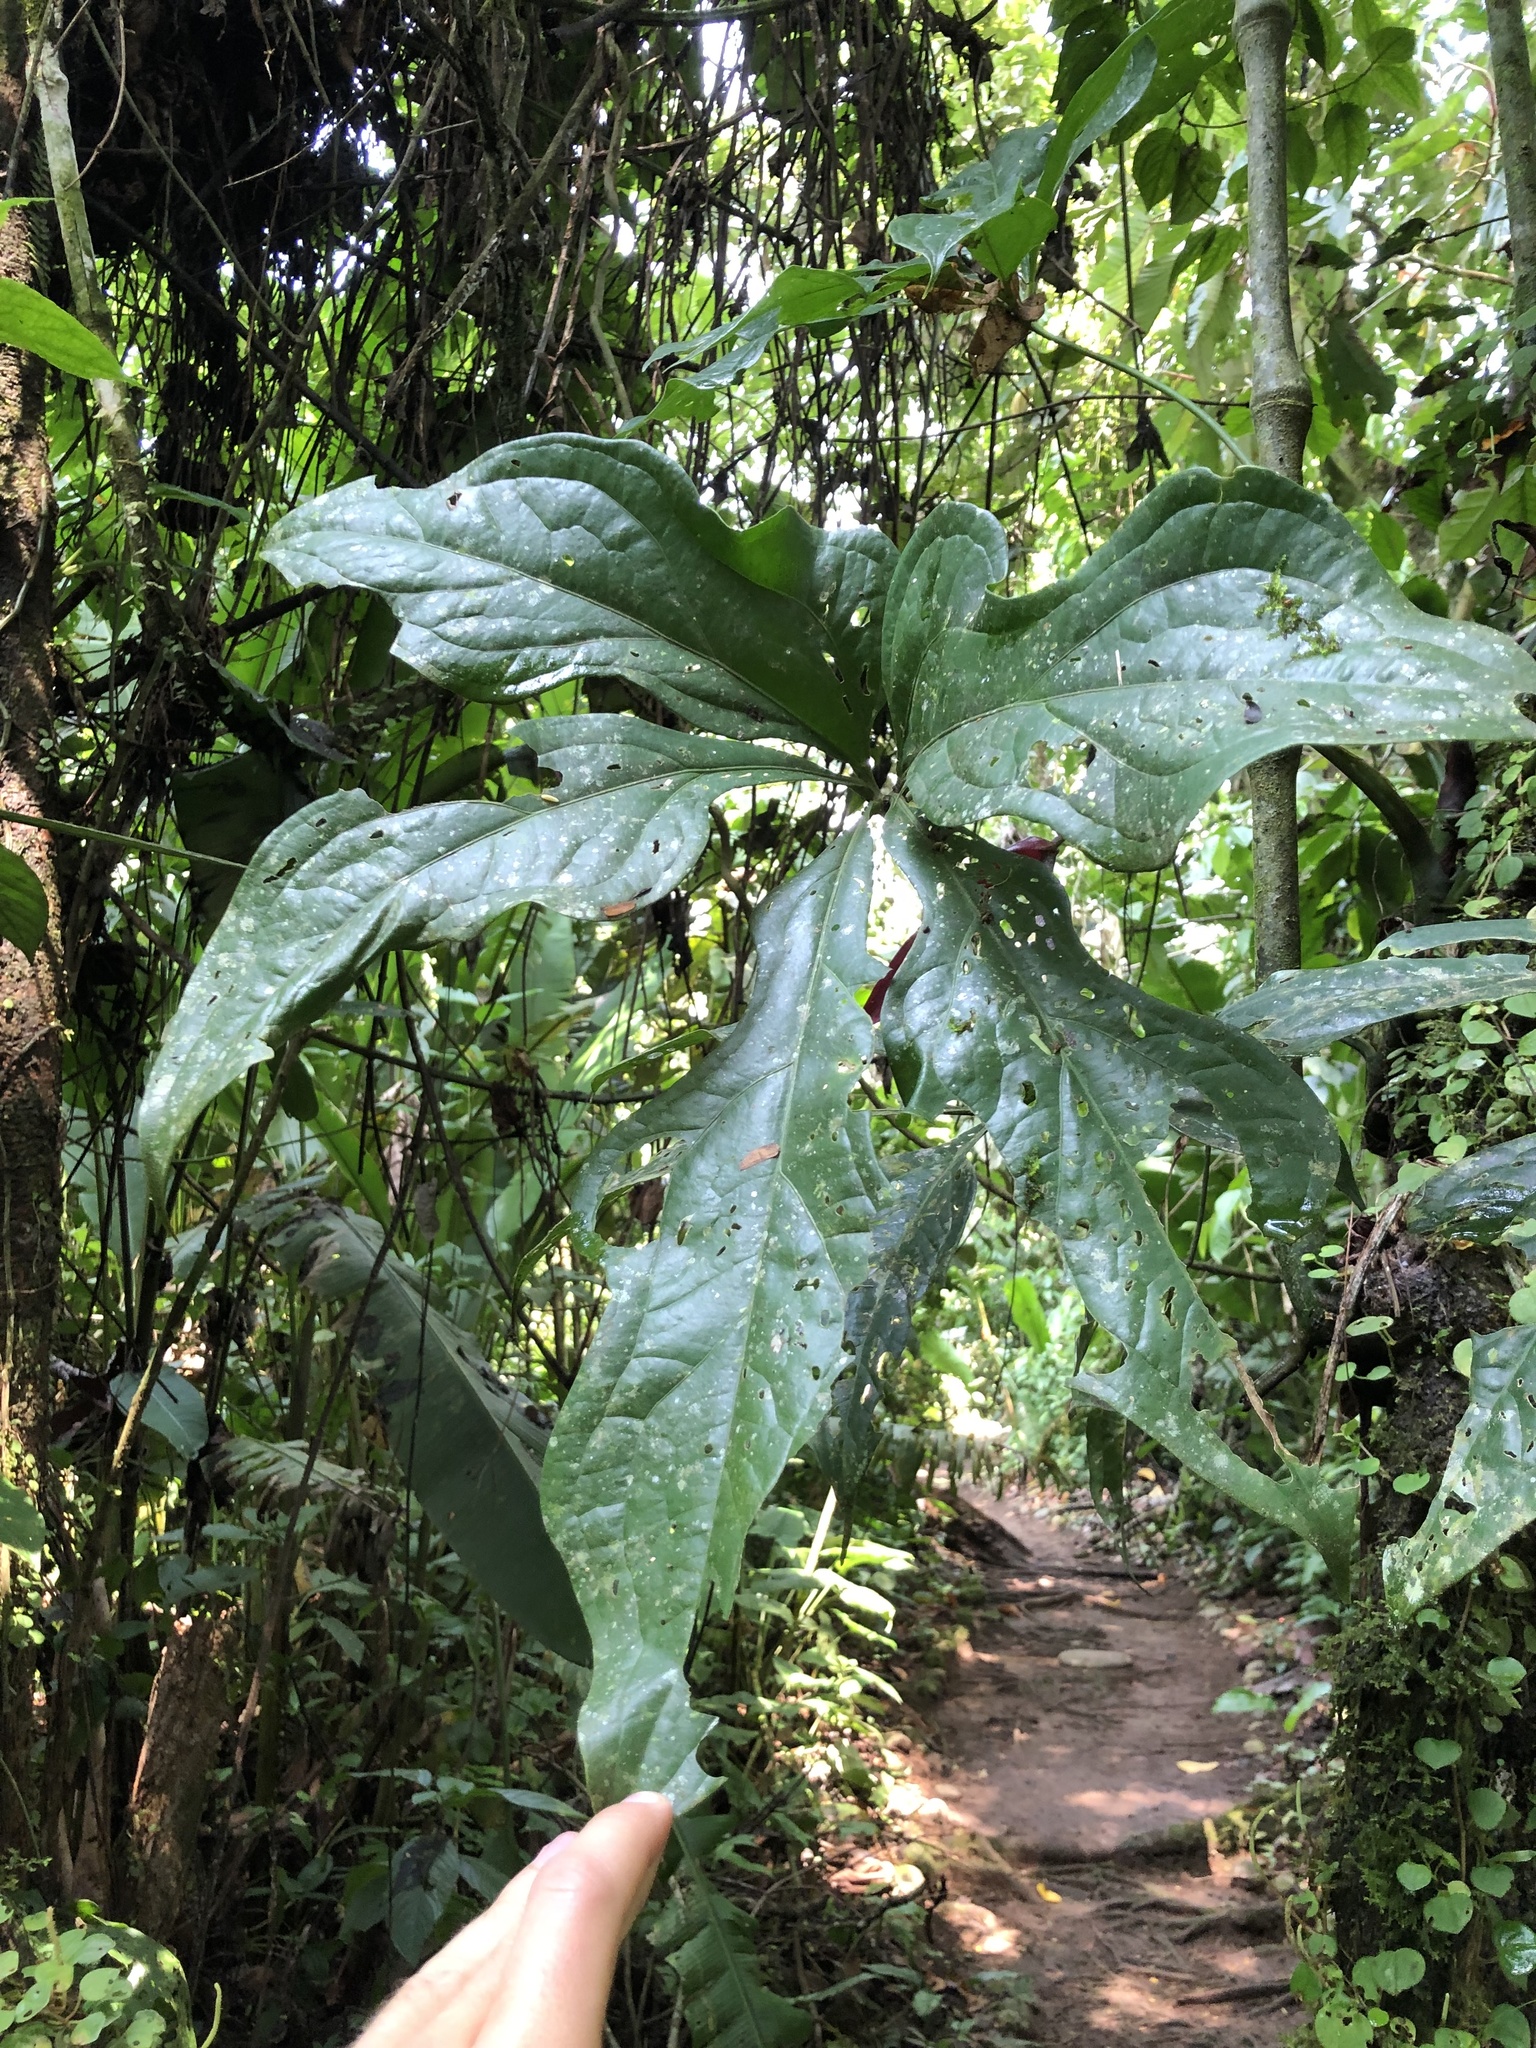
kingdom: Plantae
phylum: Tracheophyta
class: Liliopsida
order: Alismatales
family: Araceae
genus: Anthurium
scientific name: Anthurium clavigerum
